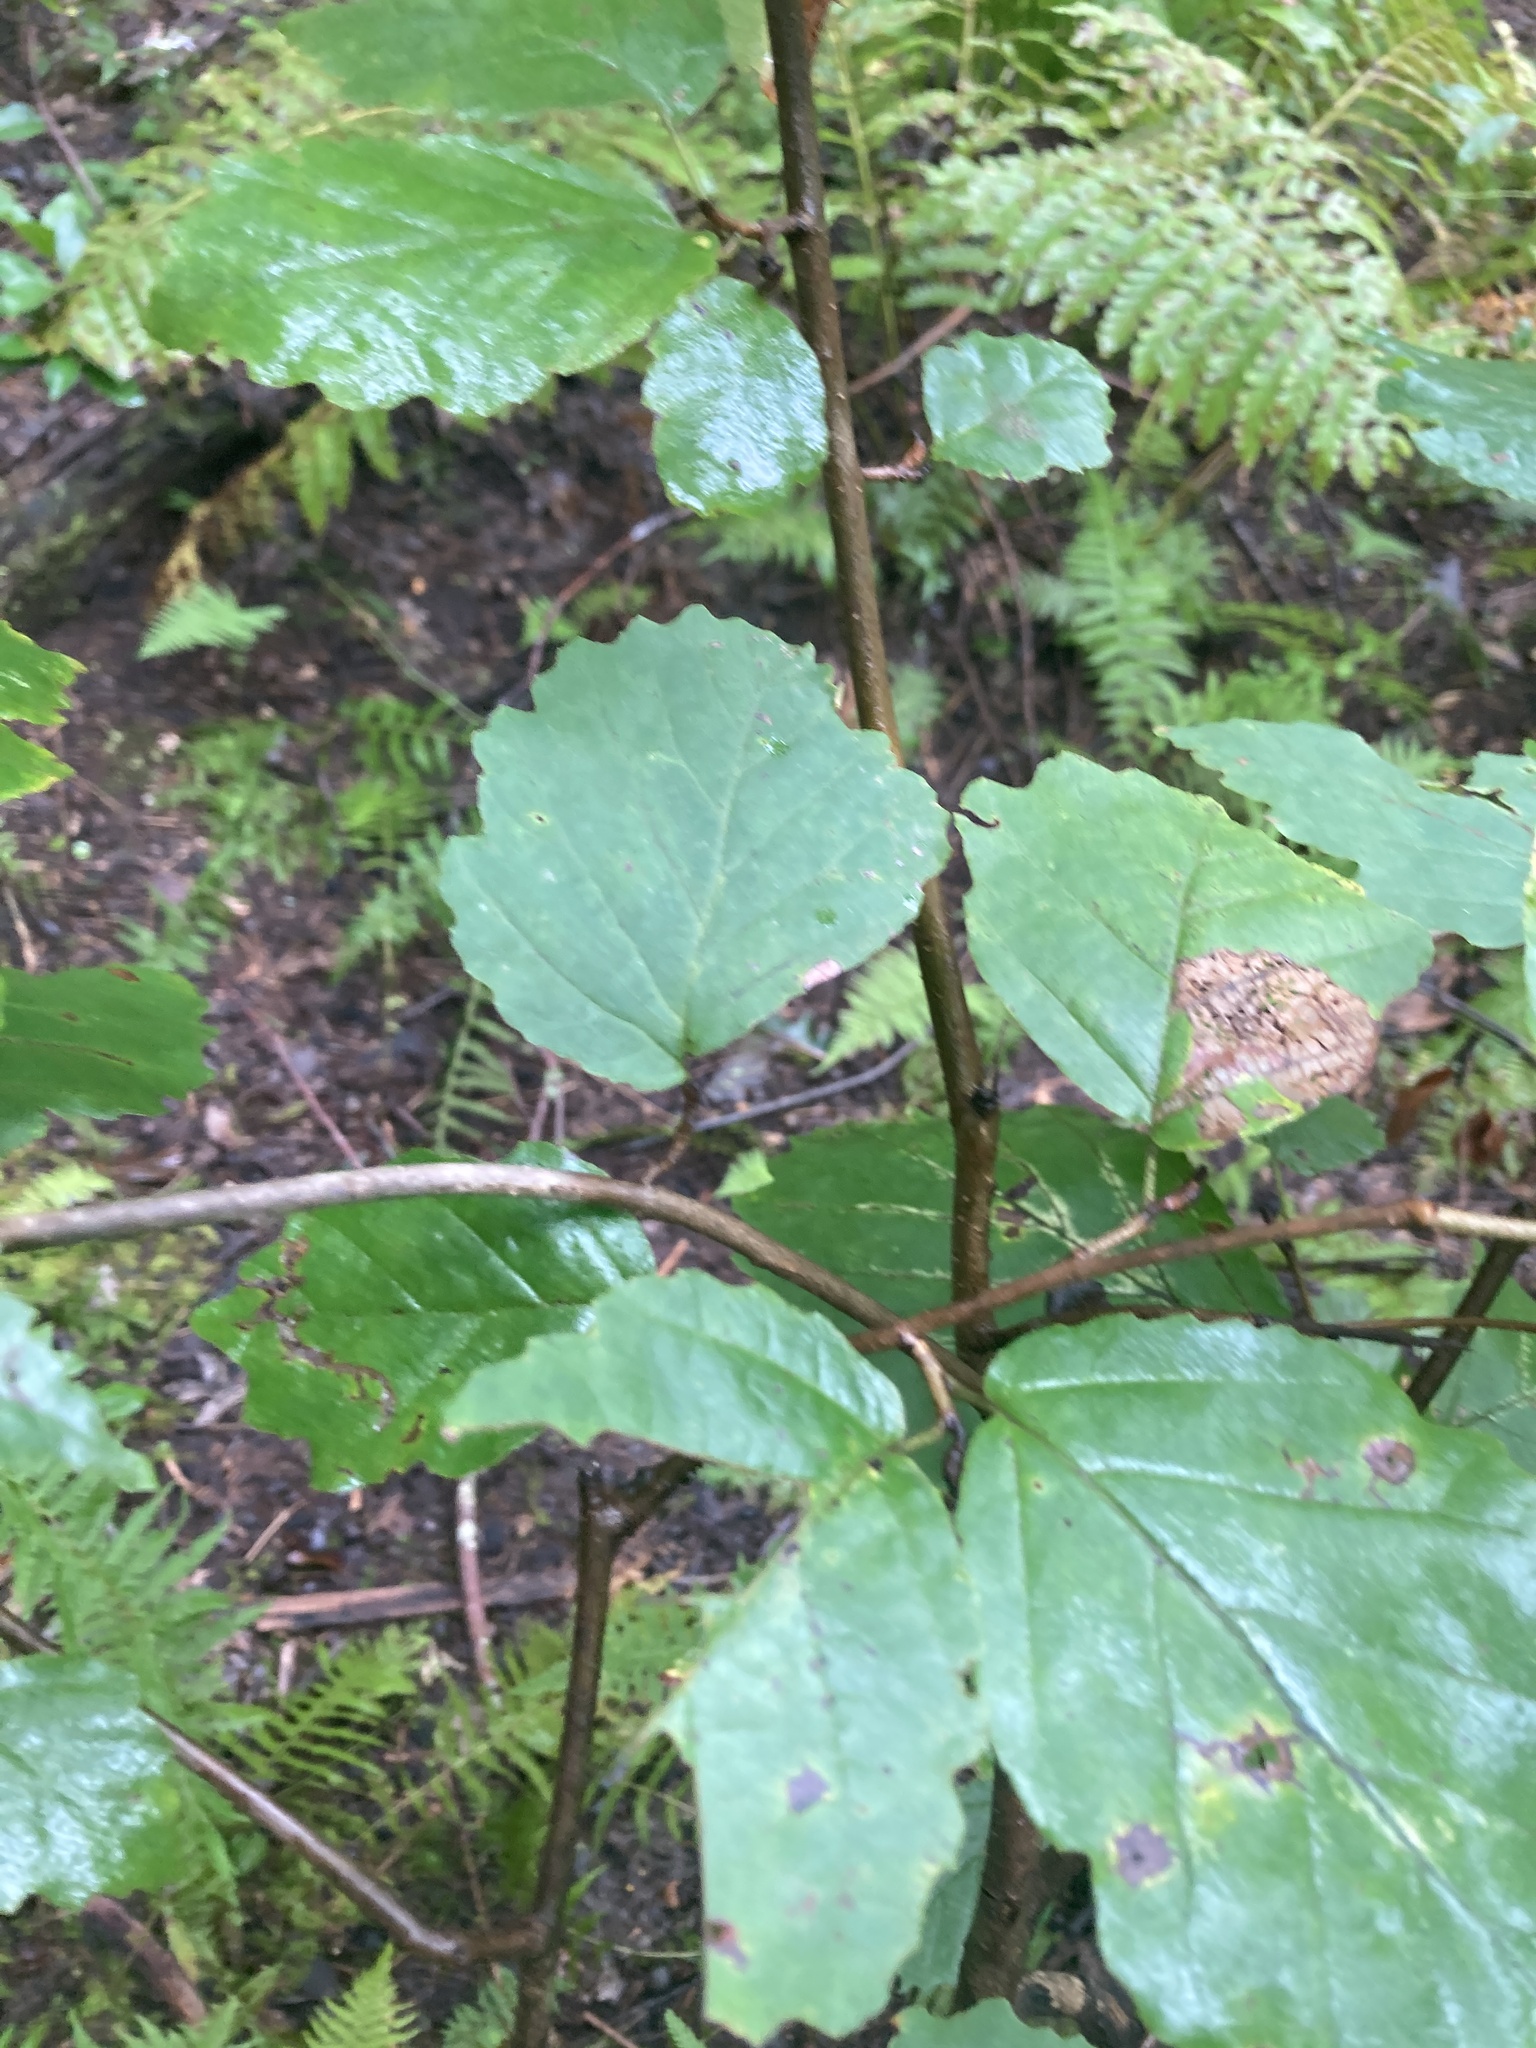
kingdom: Plantae
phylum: Tracheophyta
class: Magnoliopsida
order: Saxifragales
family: Hamamelidaceae
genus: Hamamelis
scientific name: Hamamelis virginiana
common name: Witch-hazel
